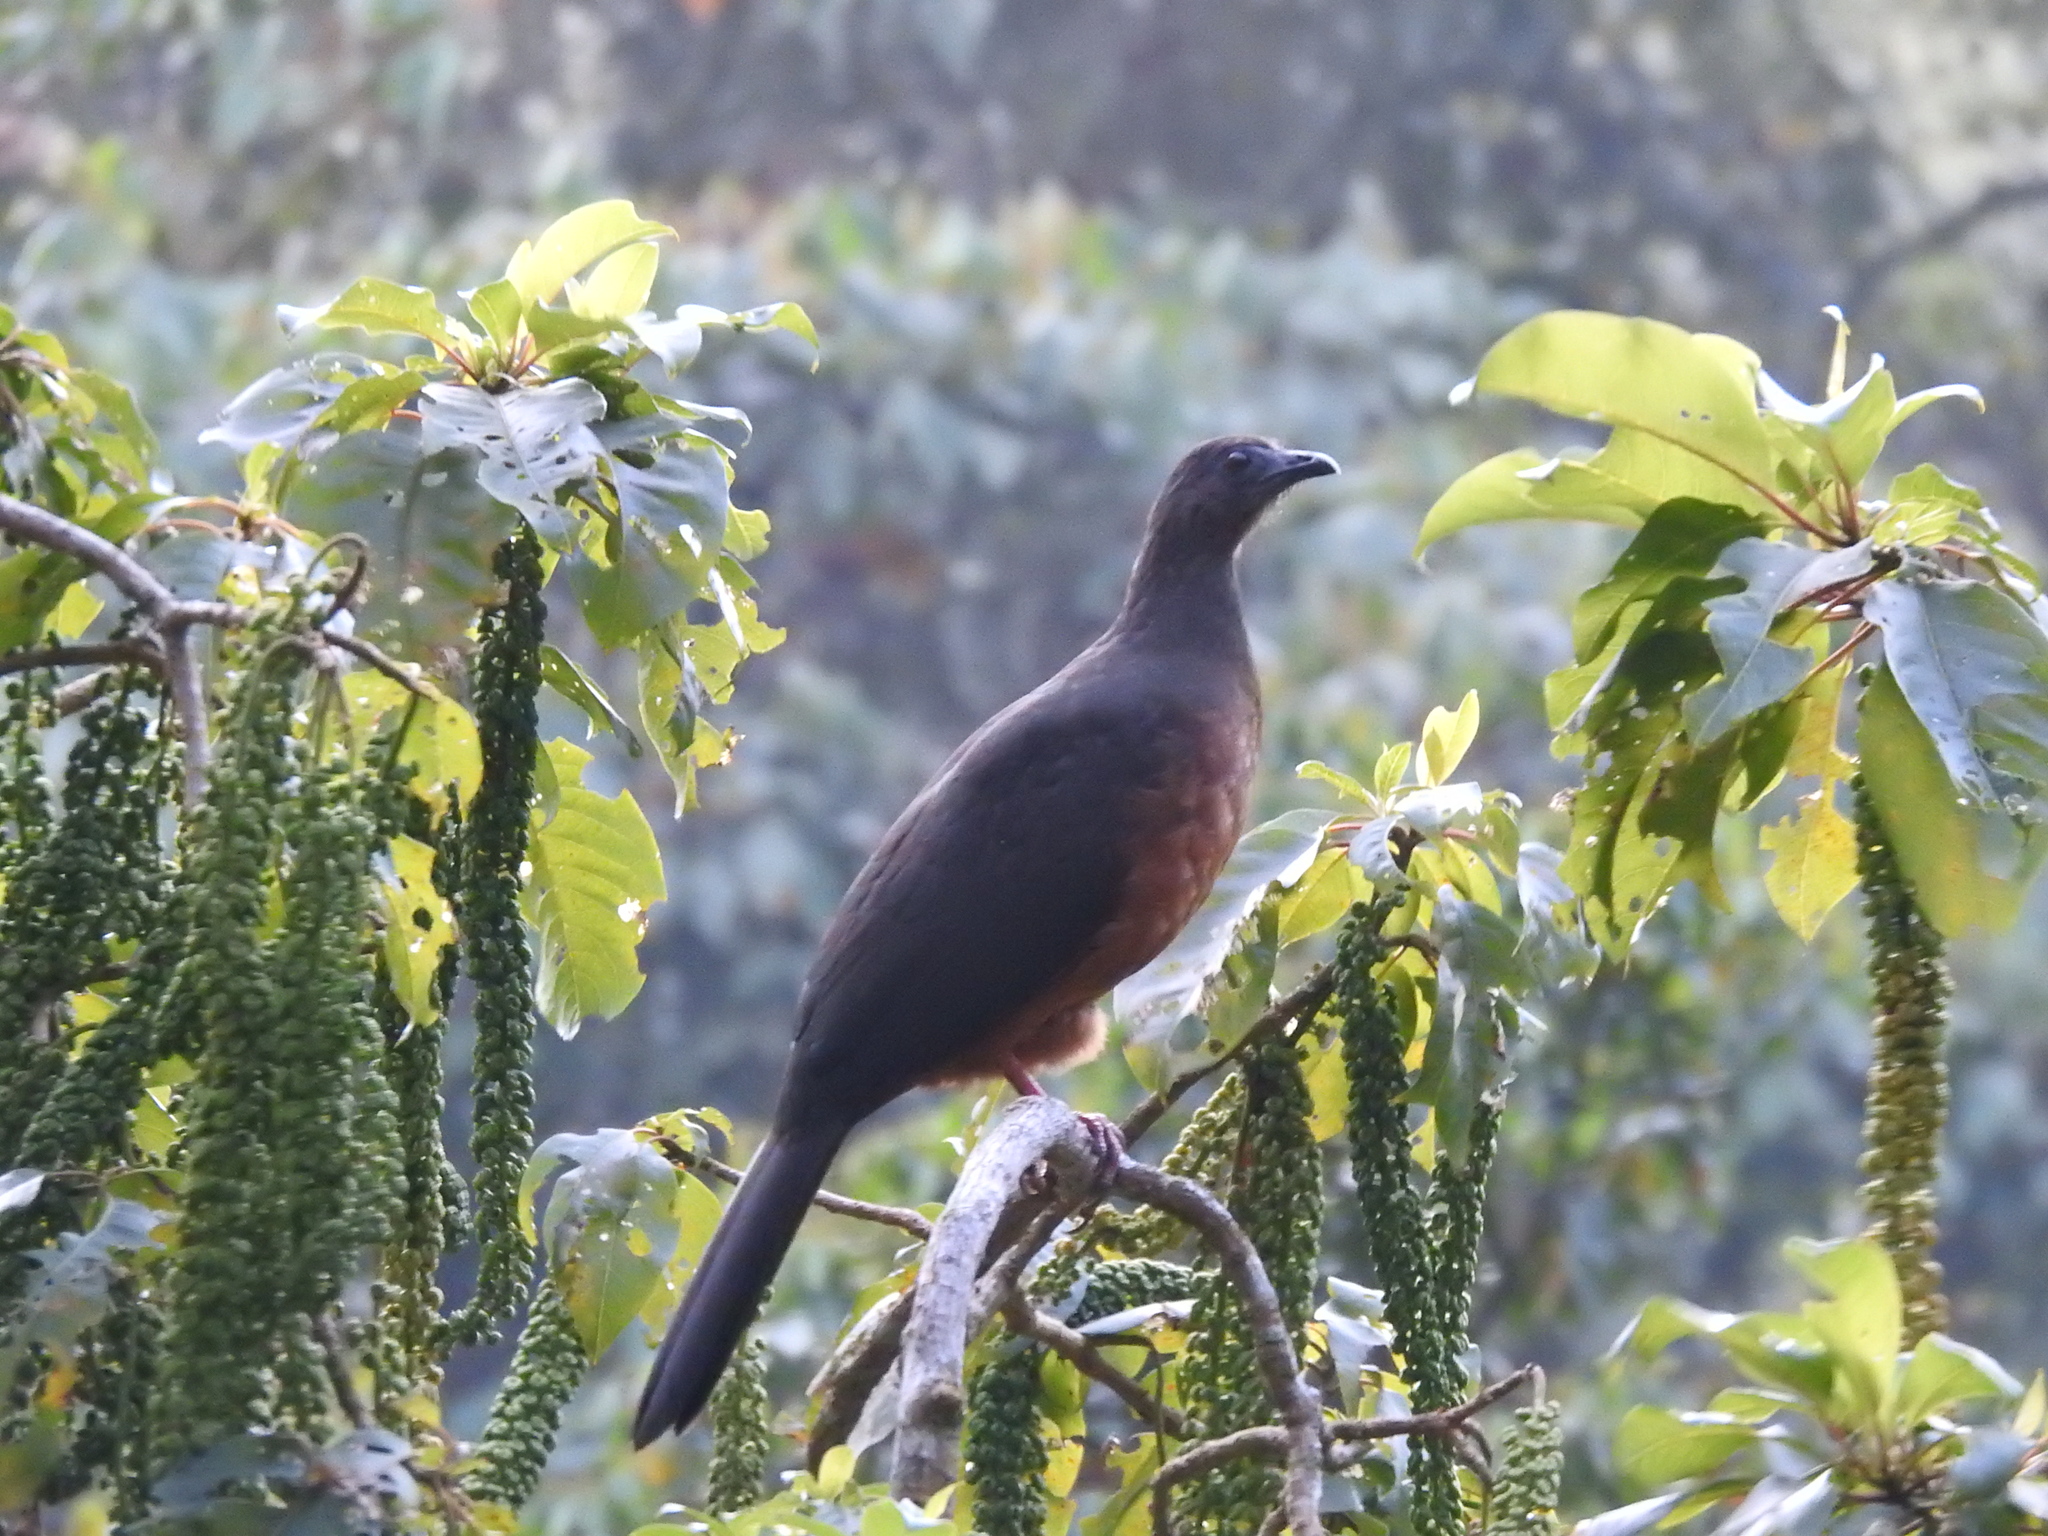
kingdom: Animalia
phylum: Chordata
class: Aves
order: Galliformes
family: Cracidae
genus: Chamaepetes
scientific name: Chamaepetes goudotii
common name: Sickle-winged guan
